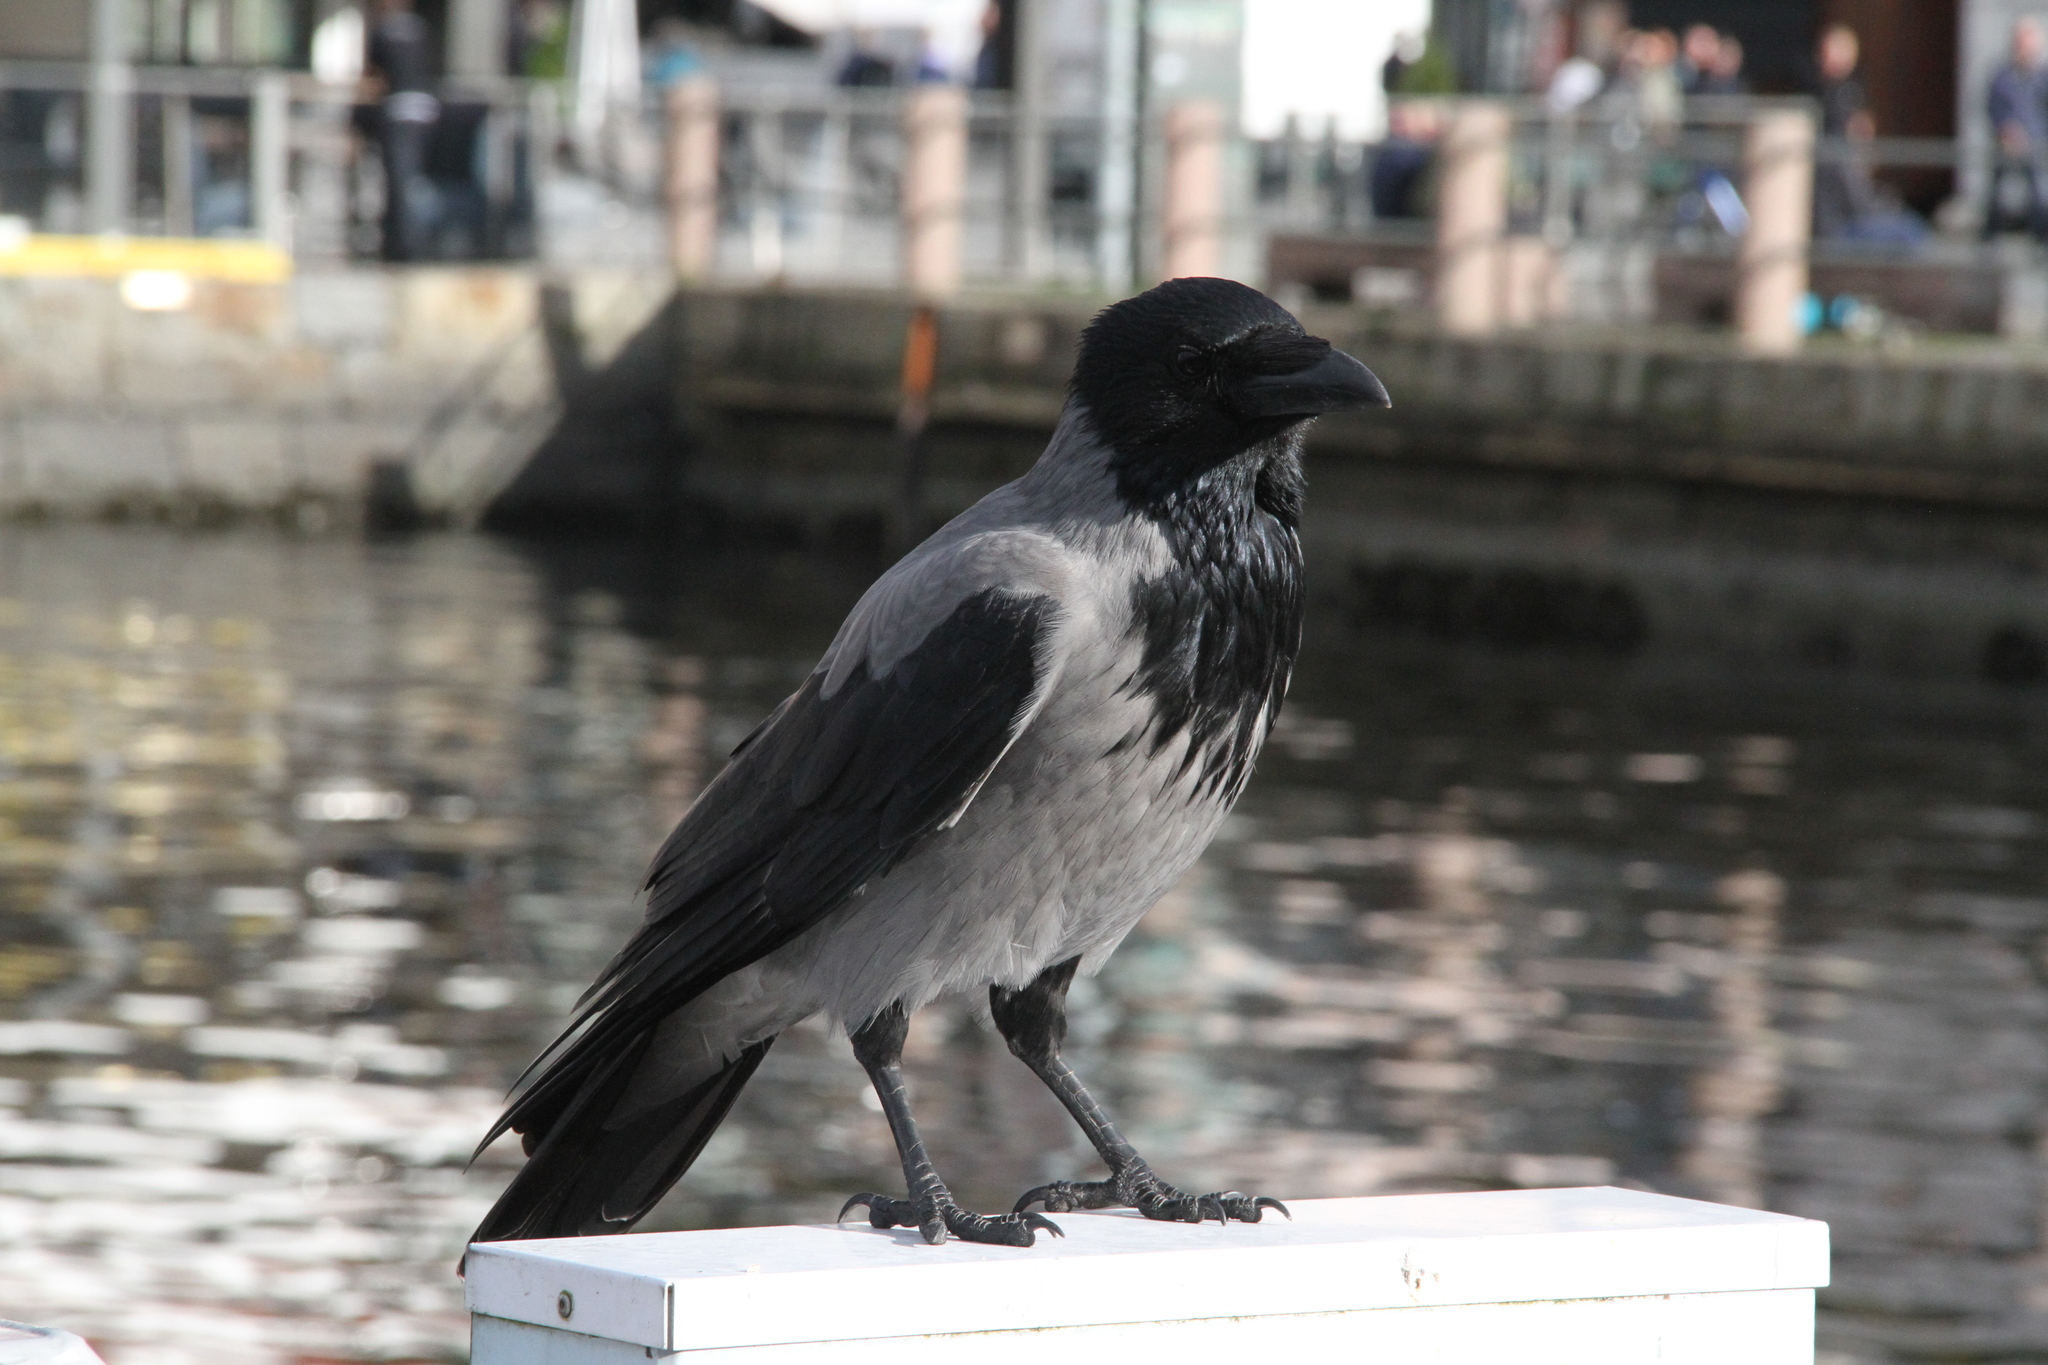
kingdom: Animalia
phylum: Chordata
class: Aves
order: Passeriformes
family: Corvidae
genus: Corvus
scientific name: Corvus cornix
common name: Hooded crow
